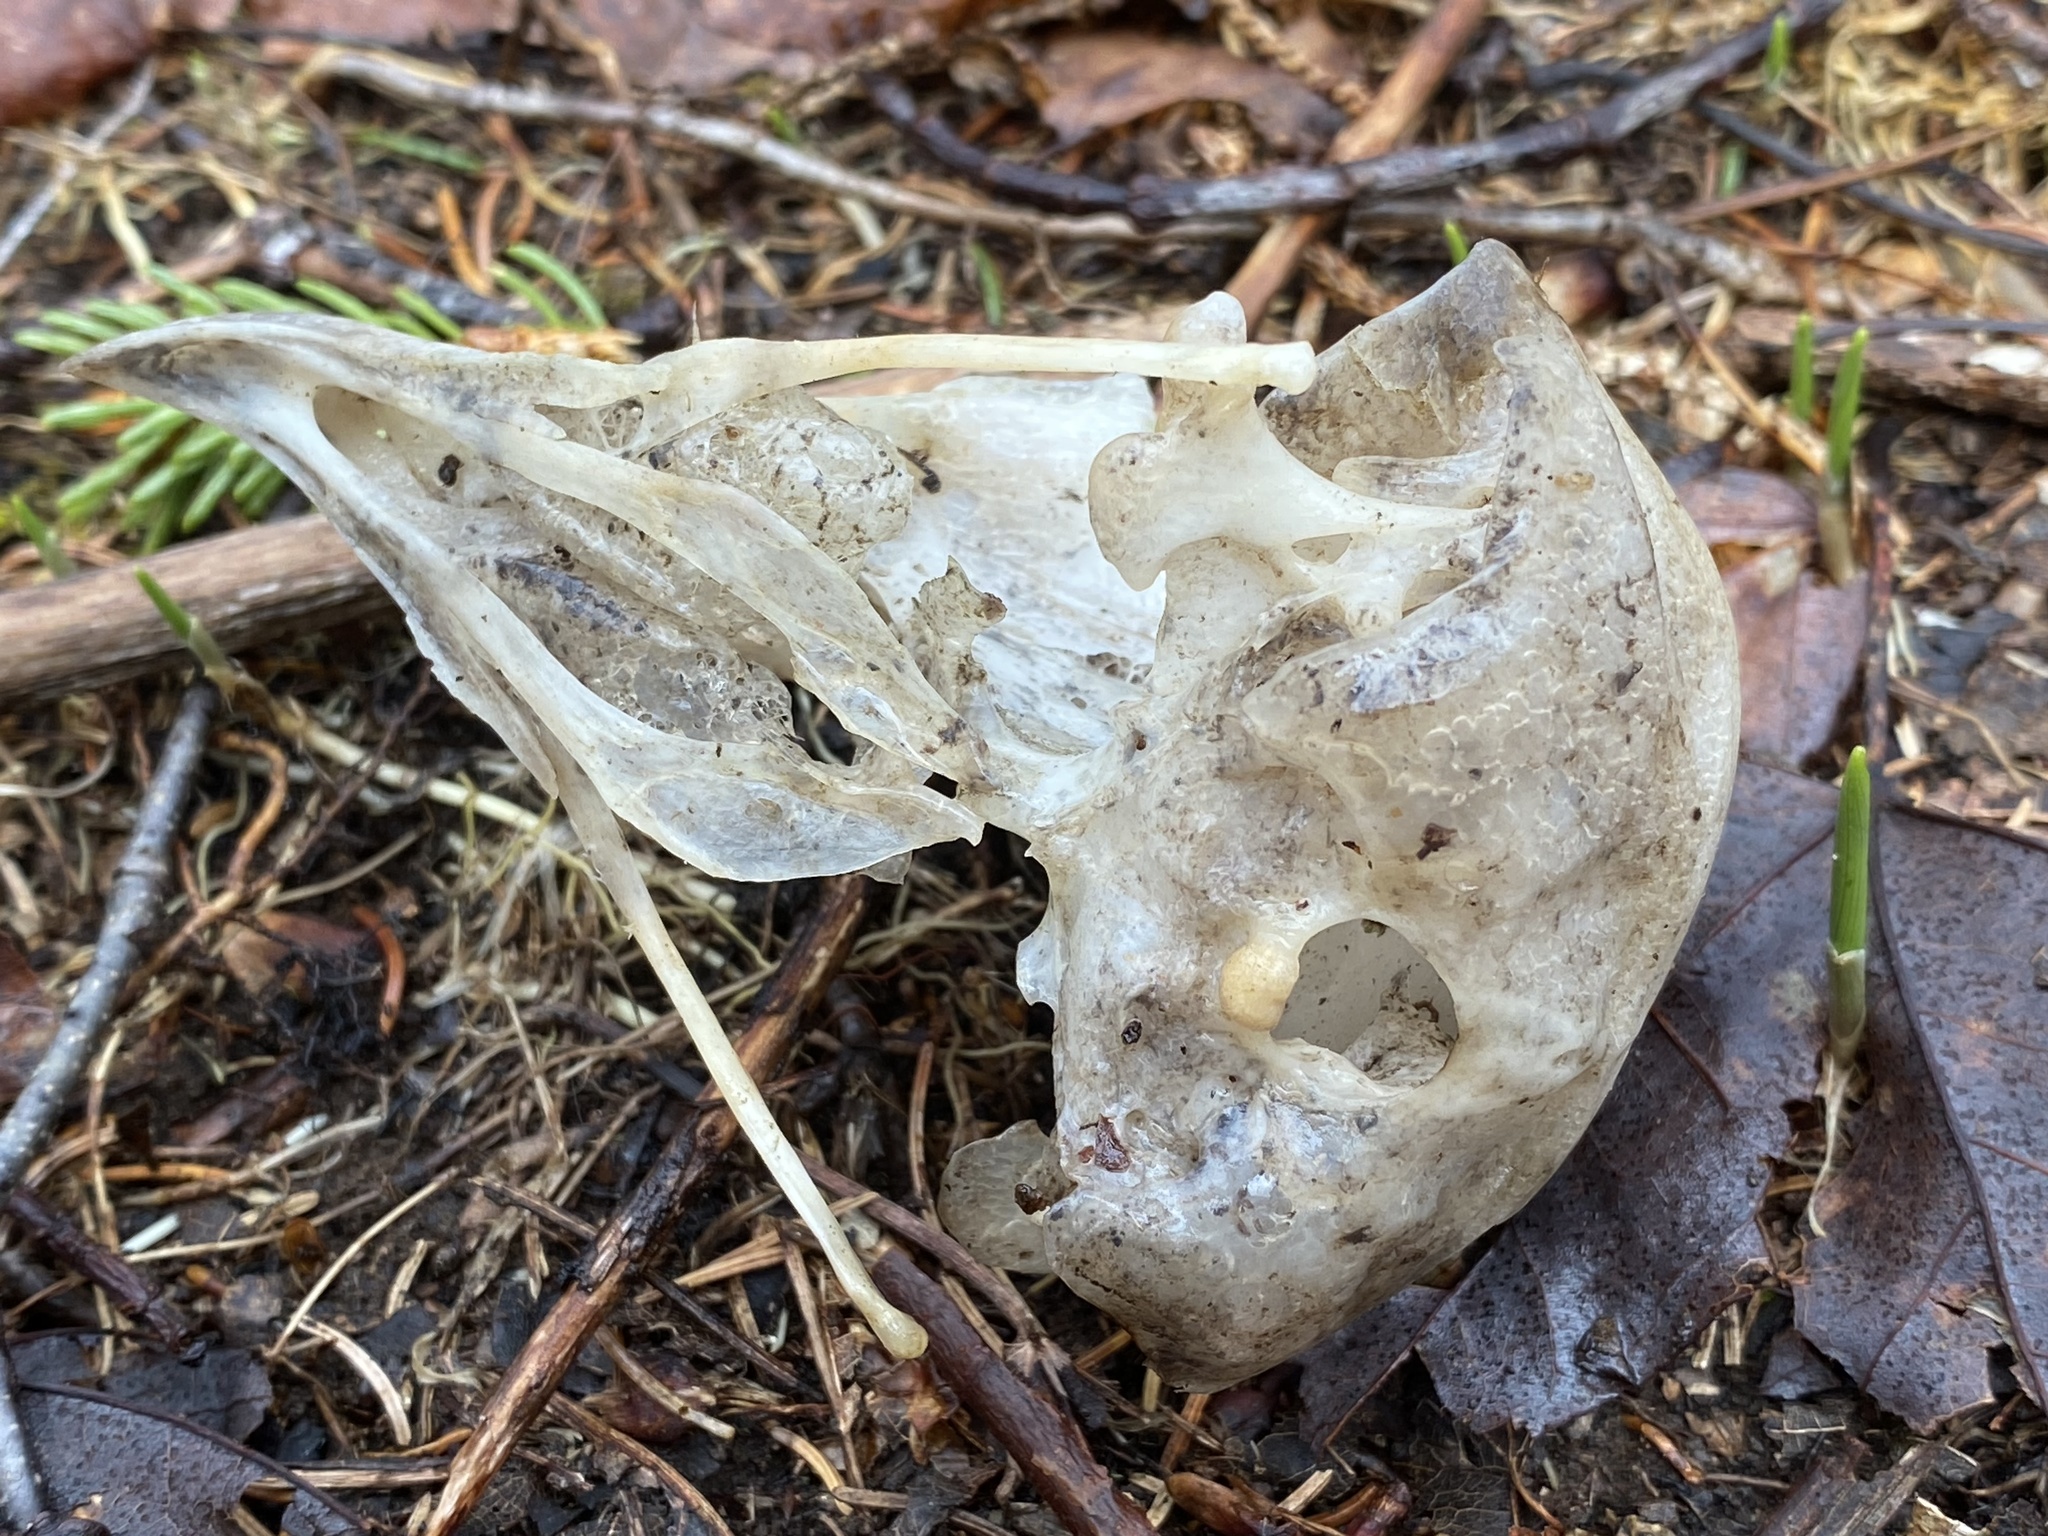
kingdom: Animalia
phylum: Chordata
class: Aves
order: Strigiformes
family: Strigidae
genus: Bubo
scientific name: Bubo virginianus
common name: Great horned owl
